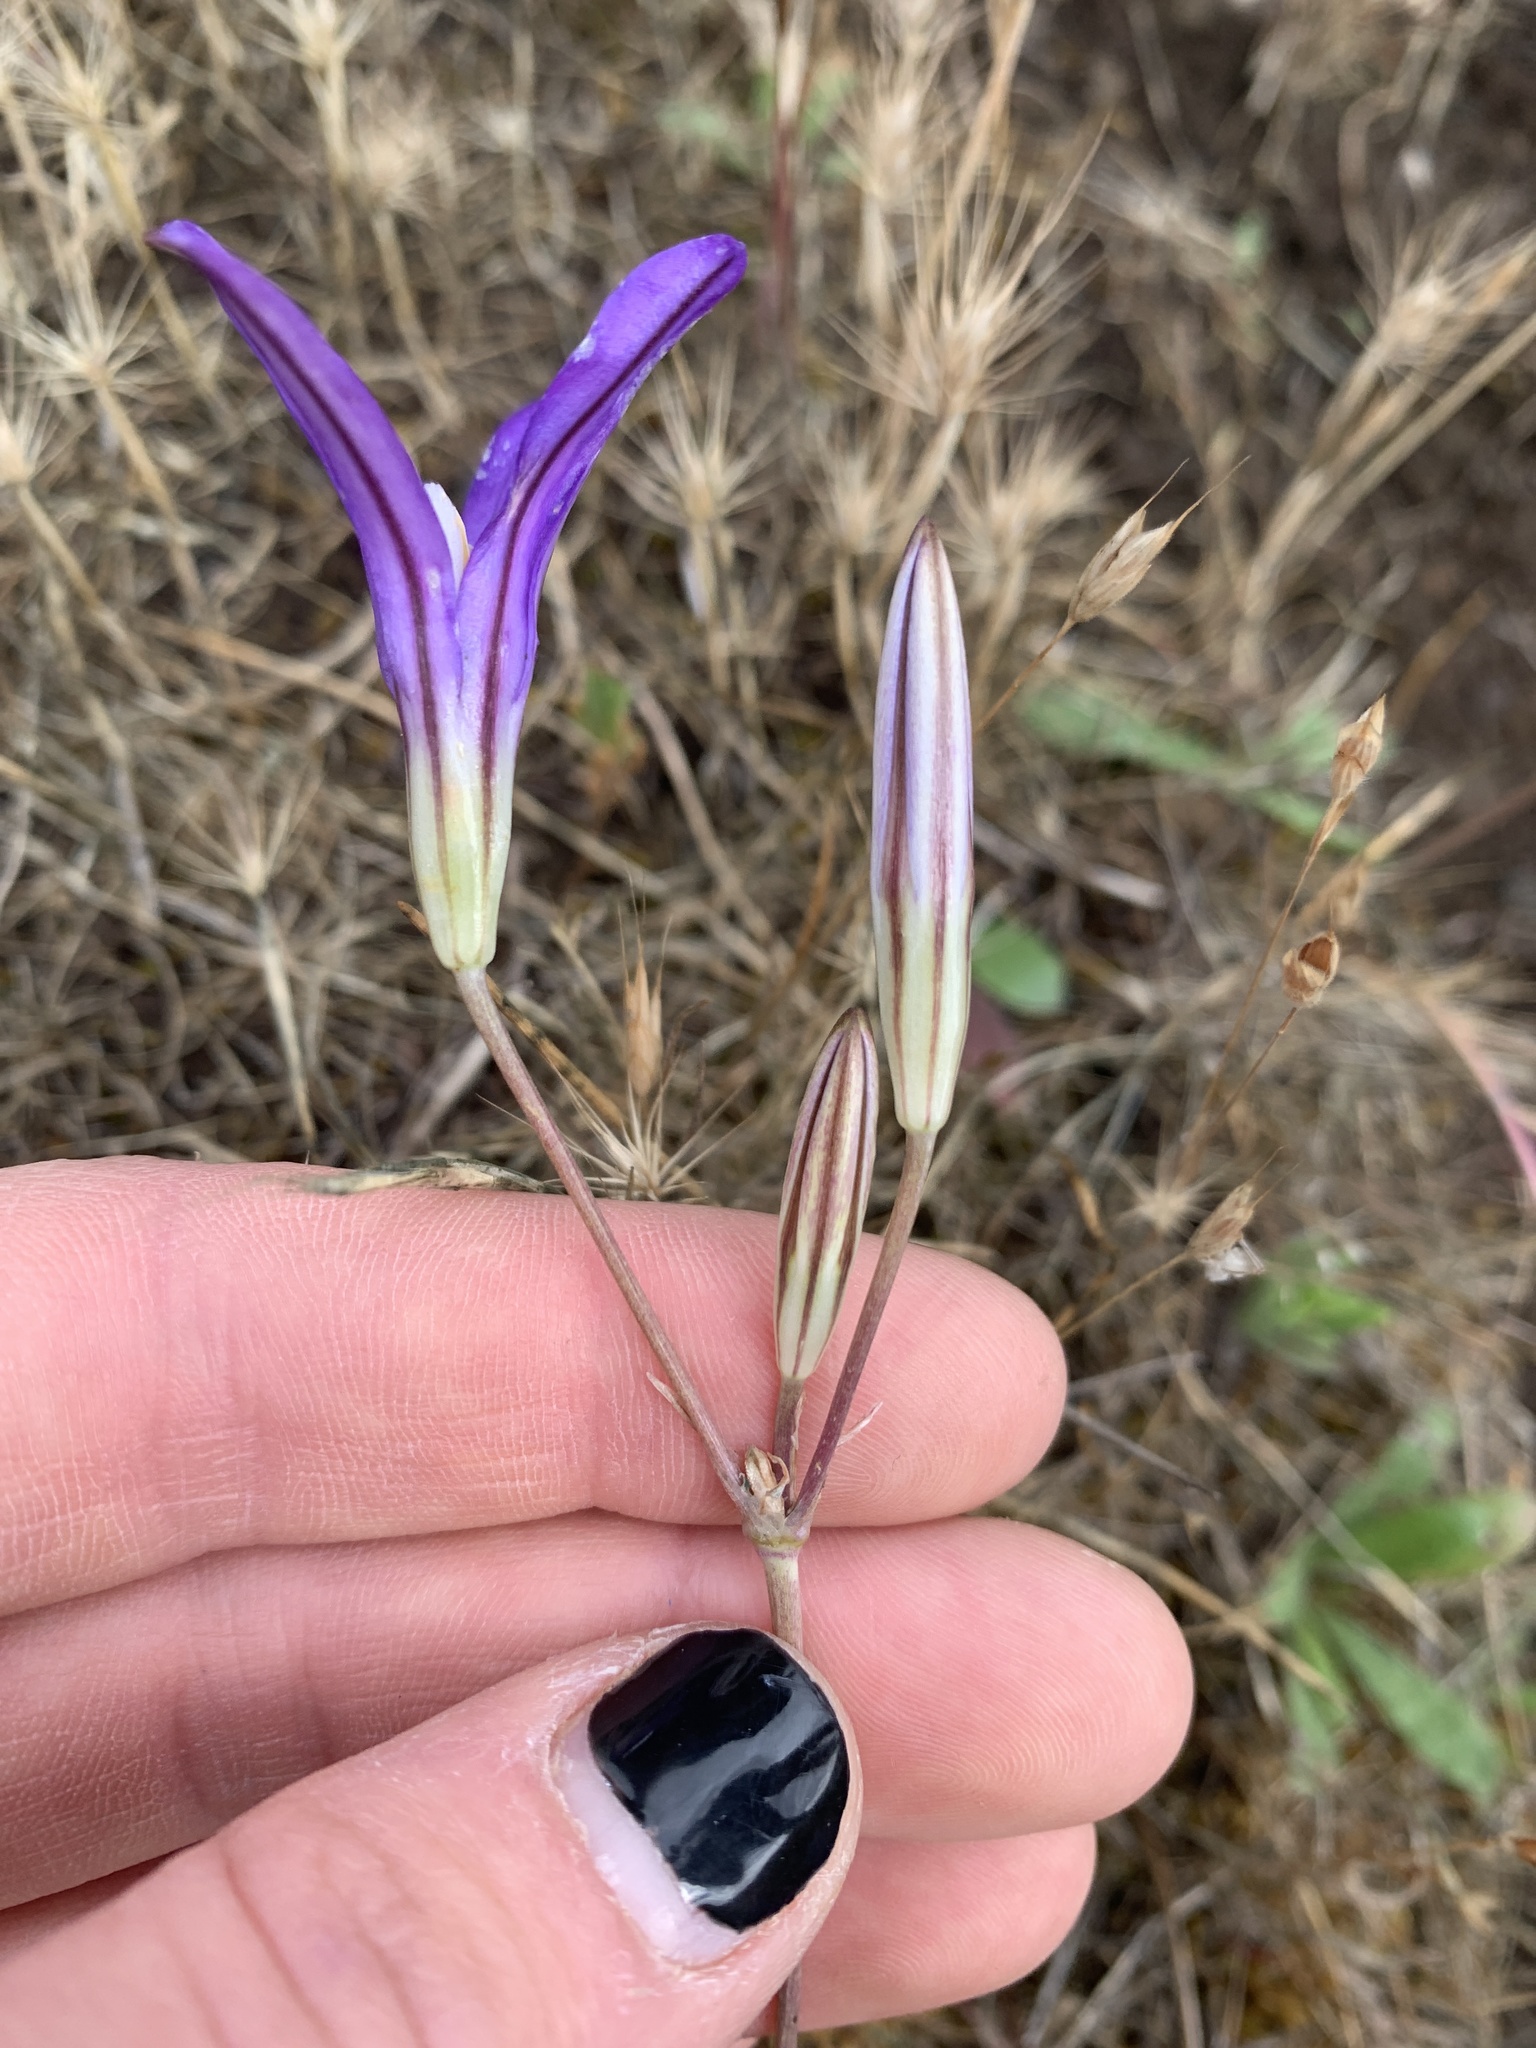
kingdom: Plantae
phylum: Tracheophyta
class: Liliopsida
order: Asparagales
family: Asparagaceae
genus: Brodiaea
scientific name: Brodiaea elegans
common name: Elegant cluster-lily
